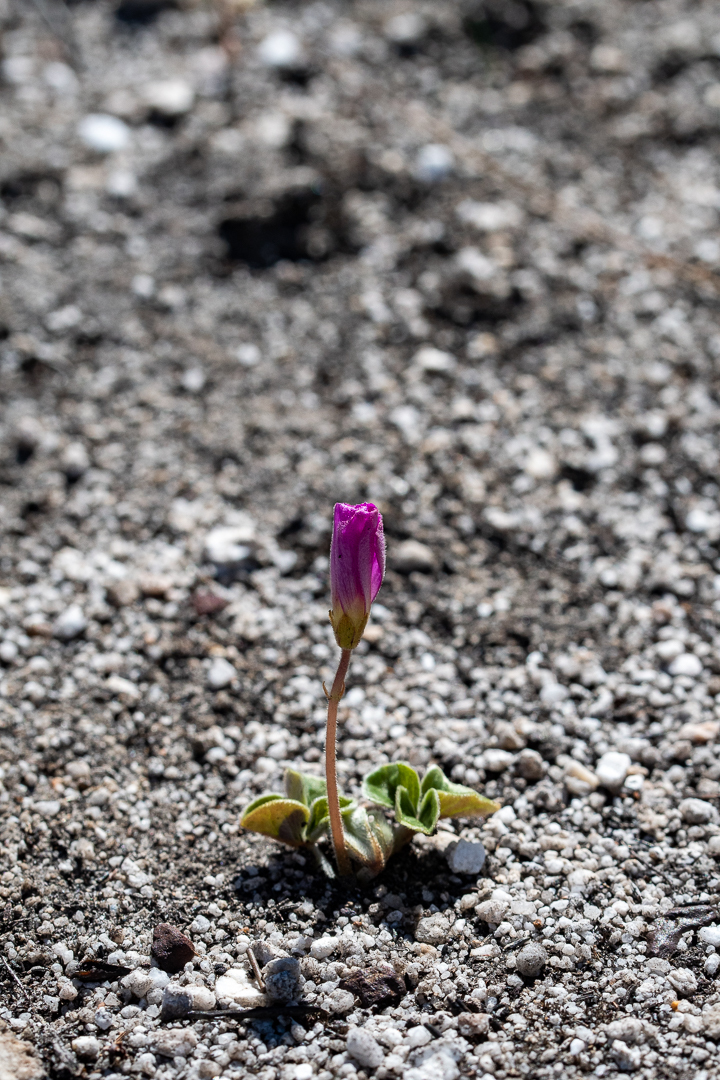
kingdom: Plantae
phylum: Tracheophyta
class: Magnoliopsida
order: Oxalidales
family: Oxalidaceae
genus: Oxalis
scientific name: Oxalis truncatula
